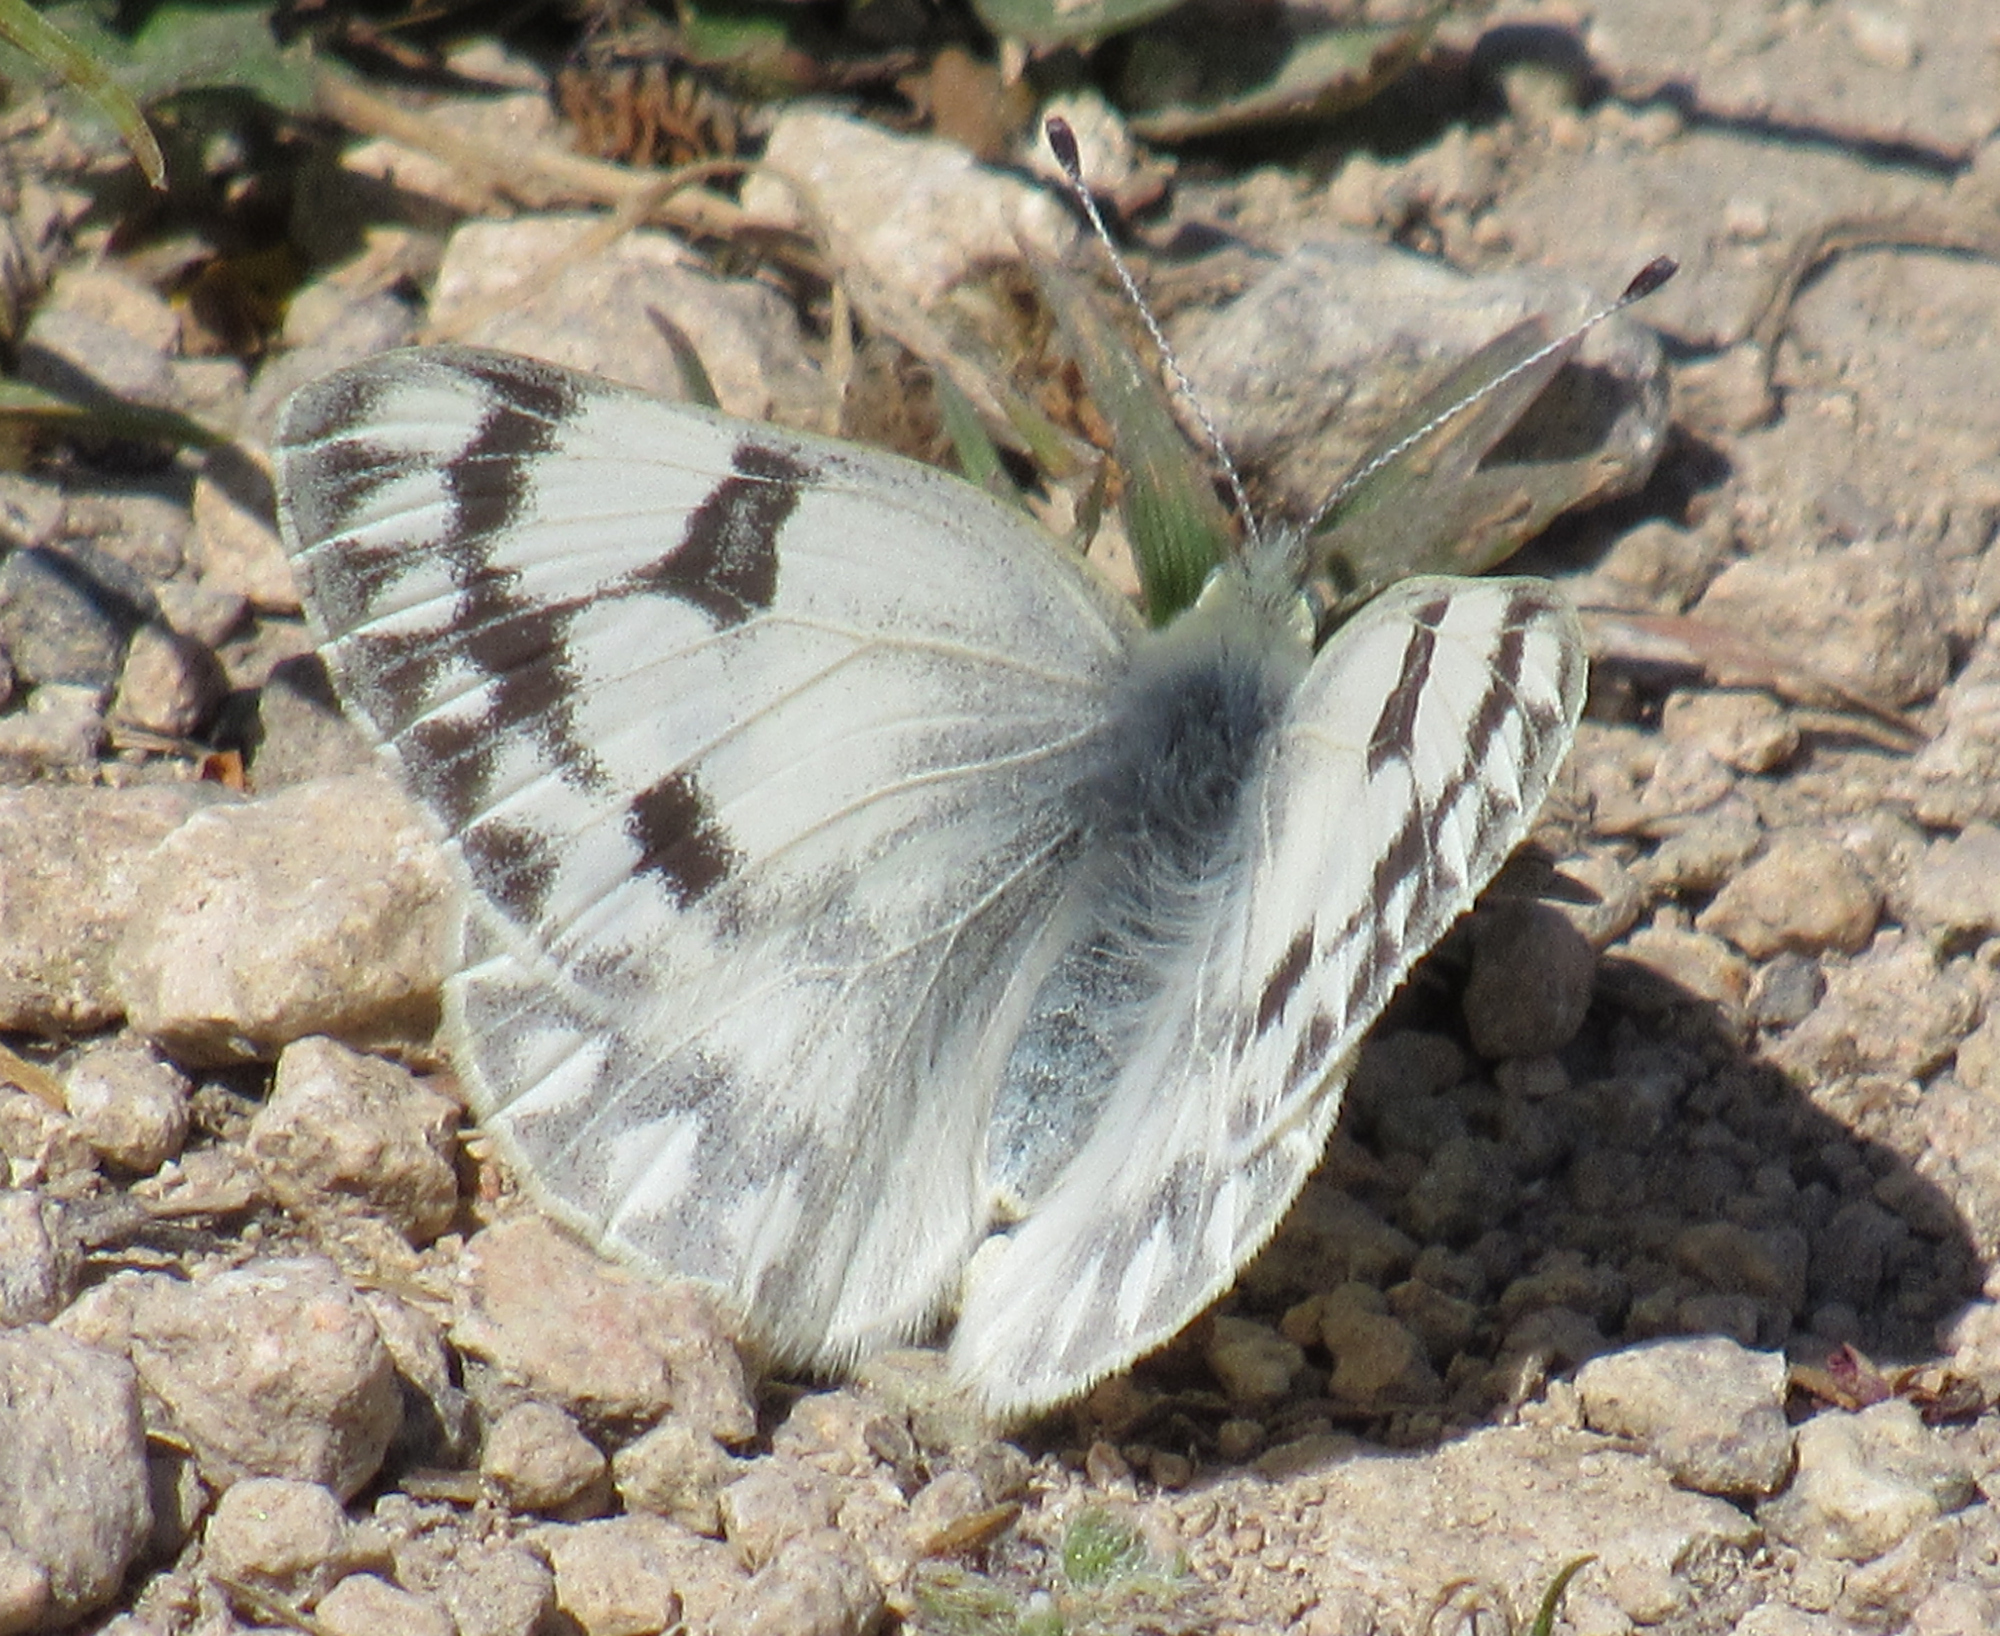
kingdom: Animalia
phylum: Arthropoda
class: Insecta
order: Lepidoptera
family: Pieridae
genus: Pontia
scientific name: Pontia occidentalis
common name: Western white
